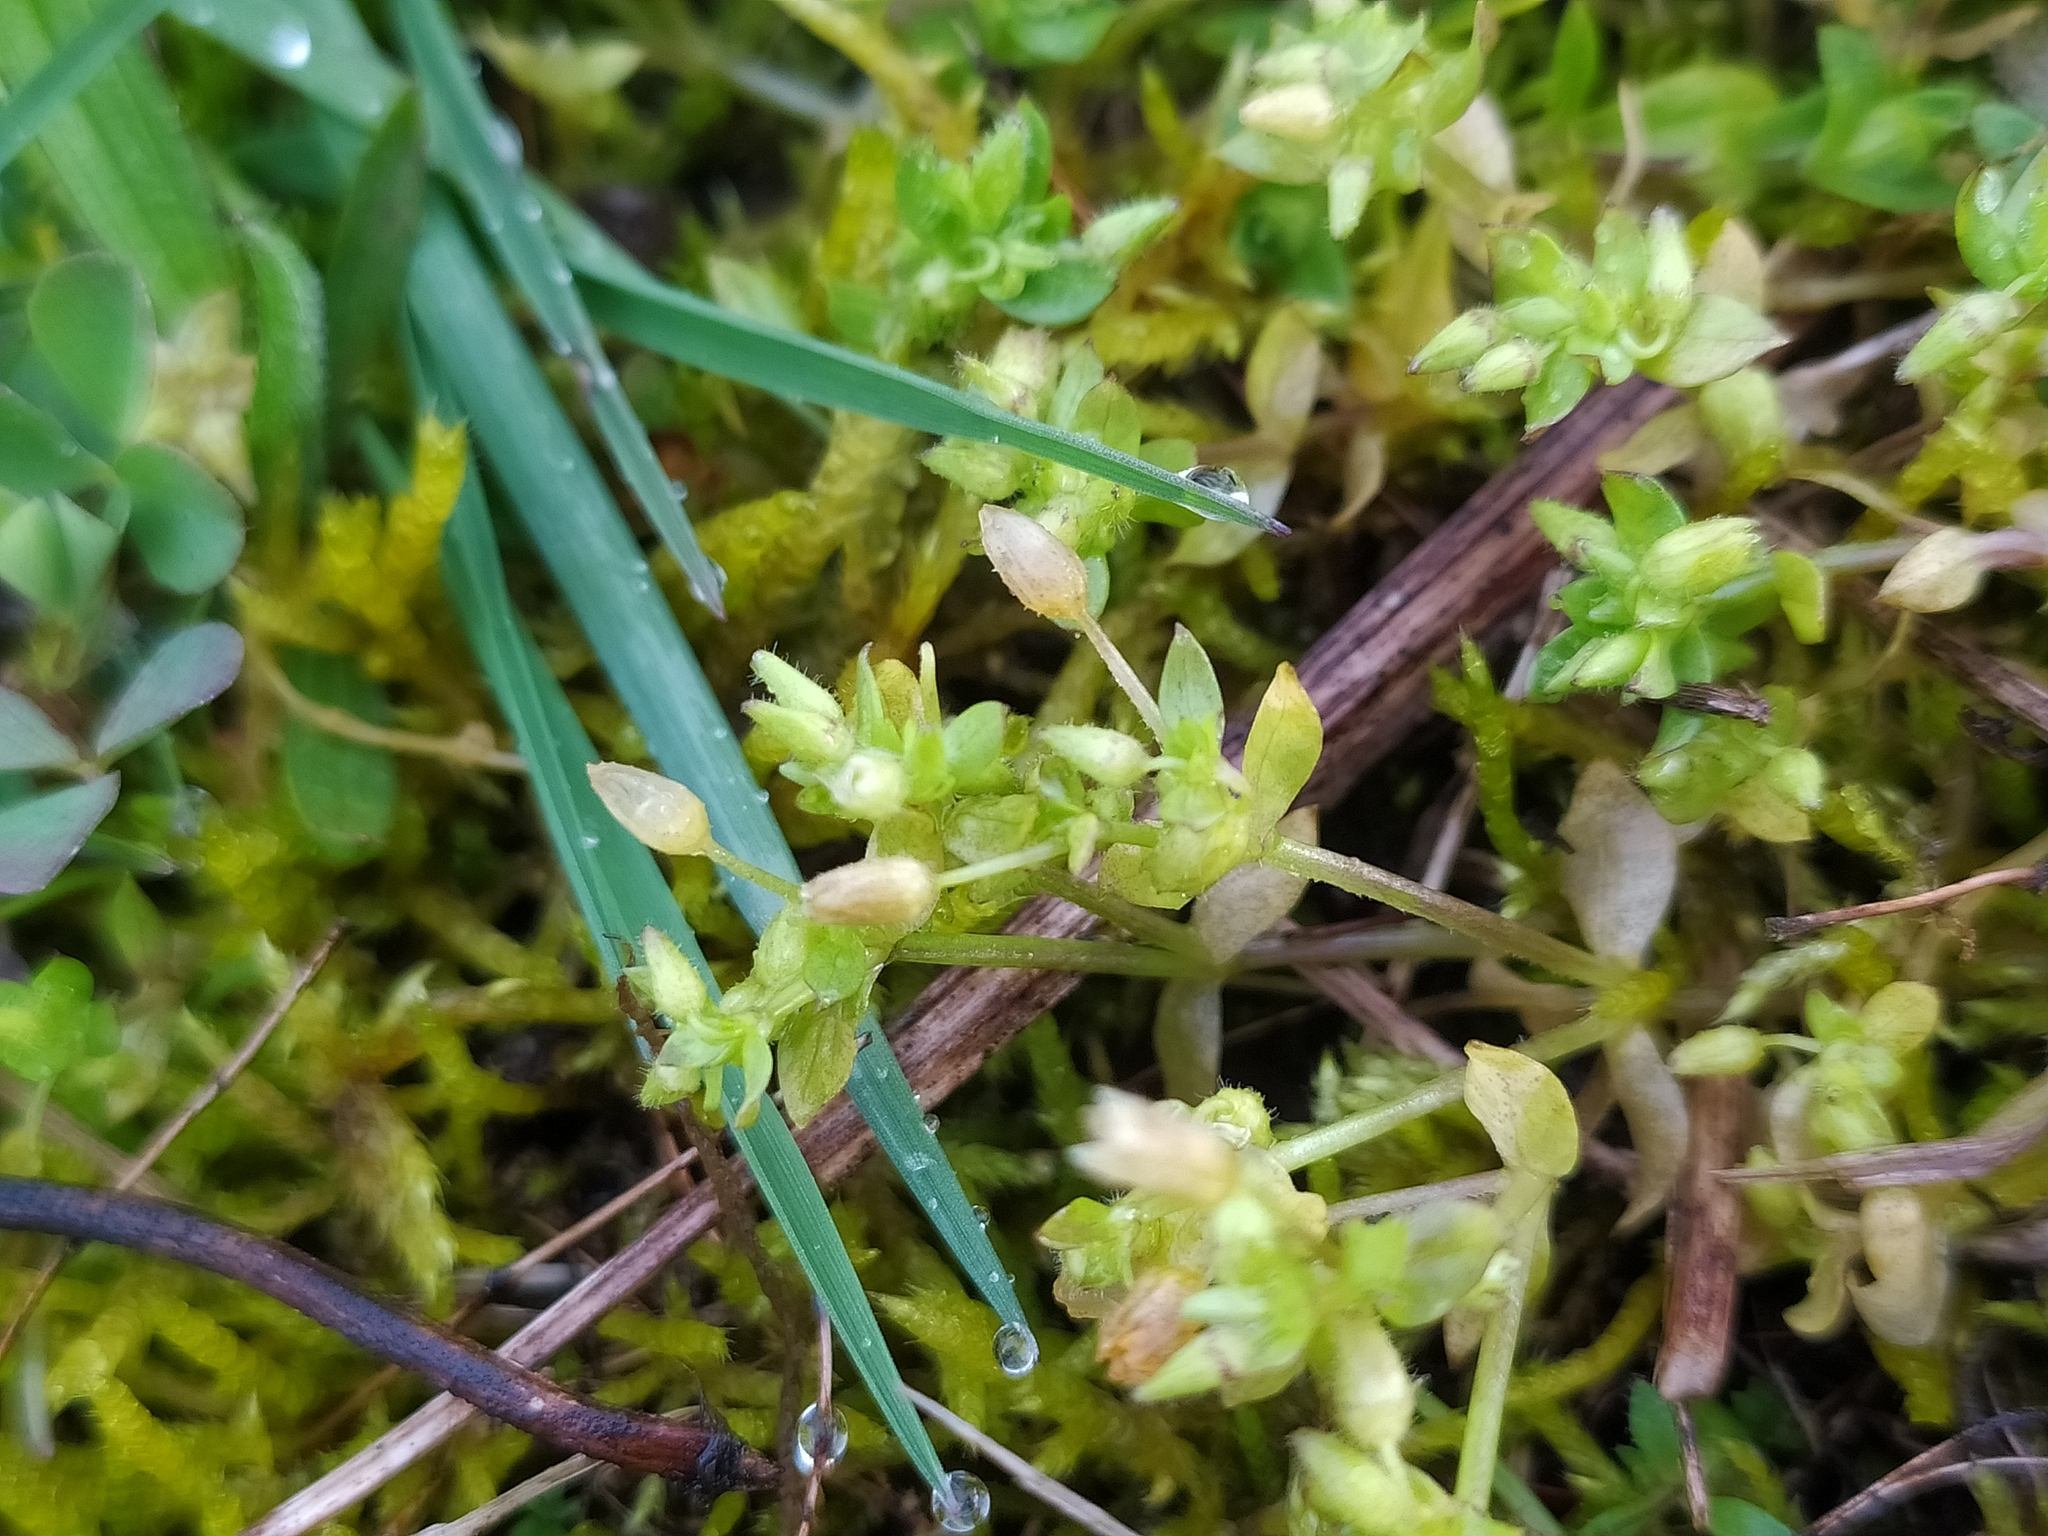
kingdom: Plantae
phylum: Tracheophyta
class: Magnoliopsida
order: Caryophyllales
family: Caryophyllaceae
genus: Stellaria
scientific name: Stellaria apetala
